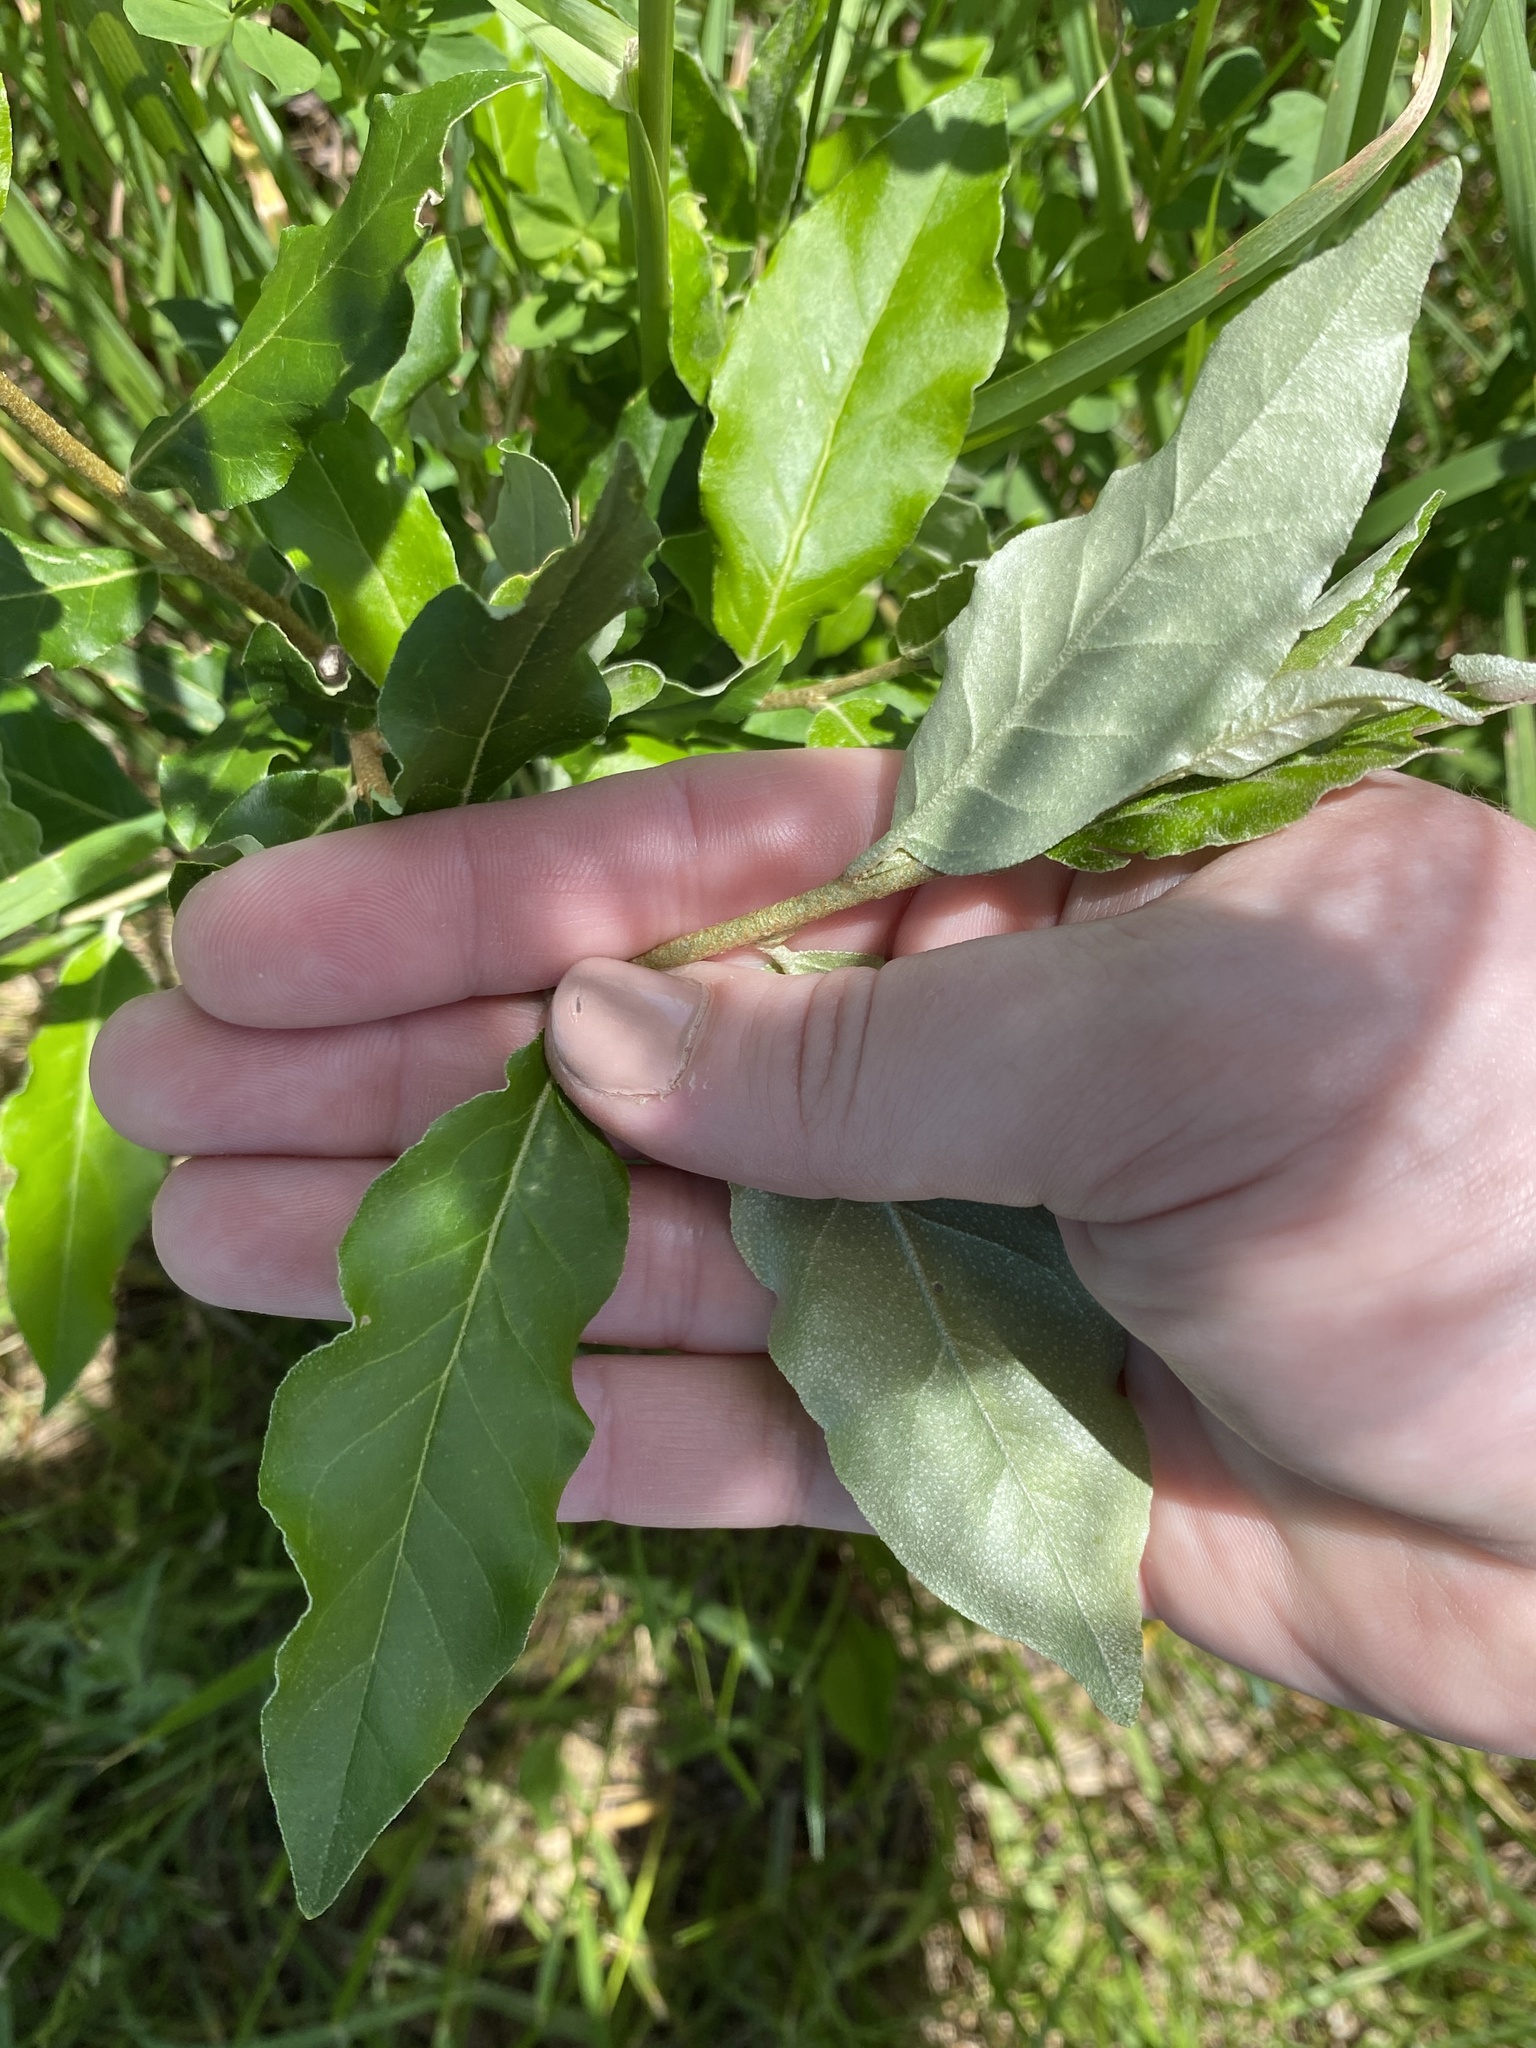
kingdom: Plantae
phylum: Tracheophyta
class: Magnoliopsida
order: Rosales
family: Elaeagnaceae
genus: Elaeagnus
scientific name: Elaeagnus umbellata
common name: Autumn olive
